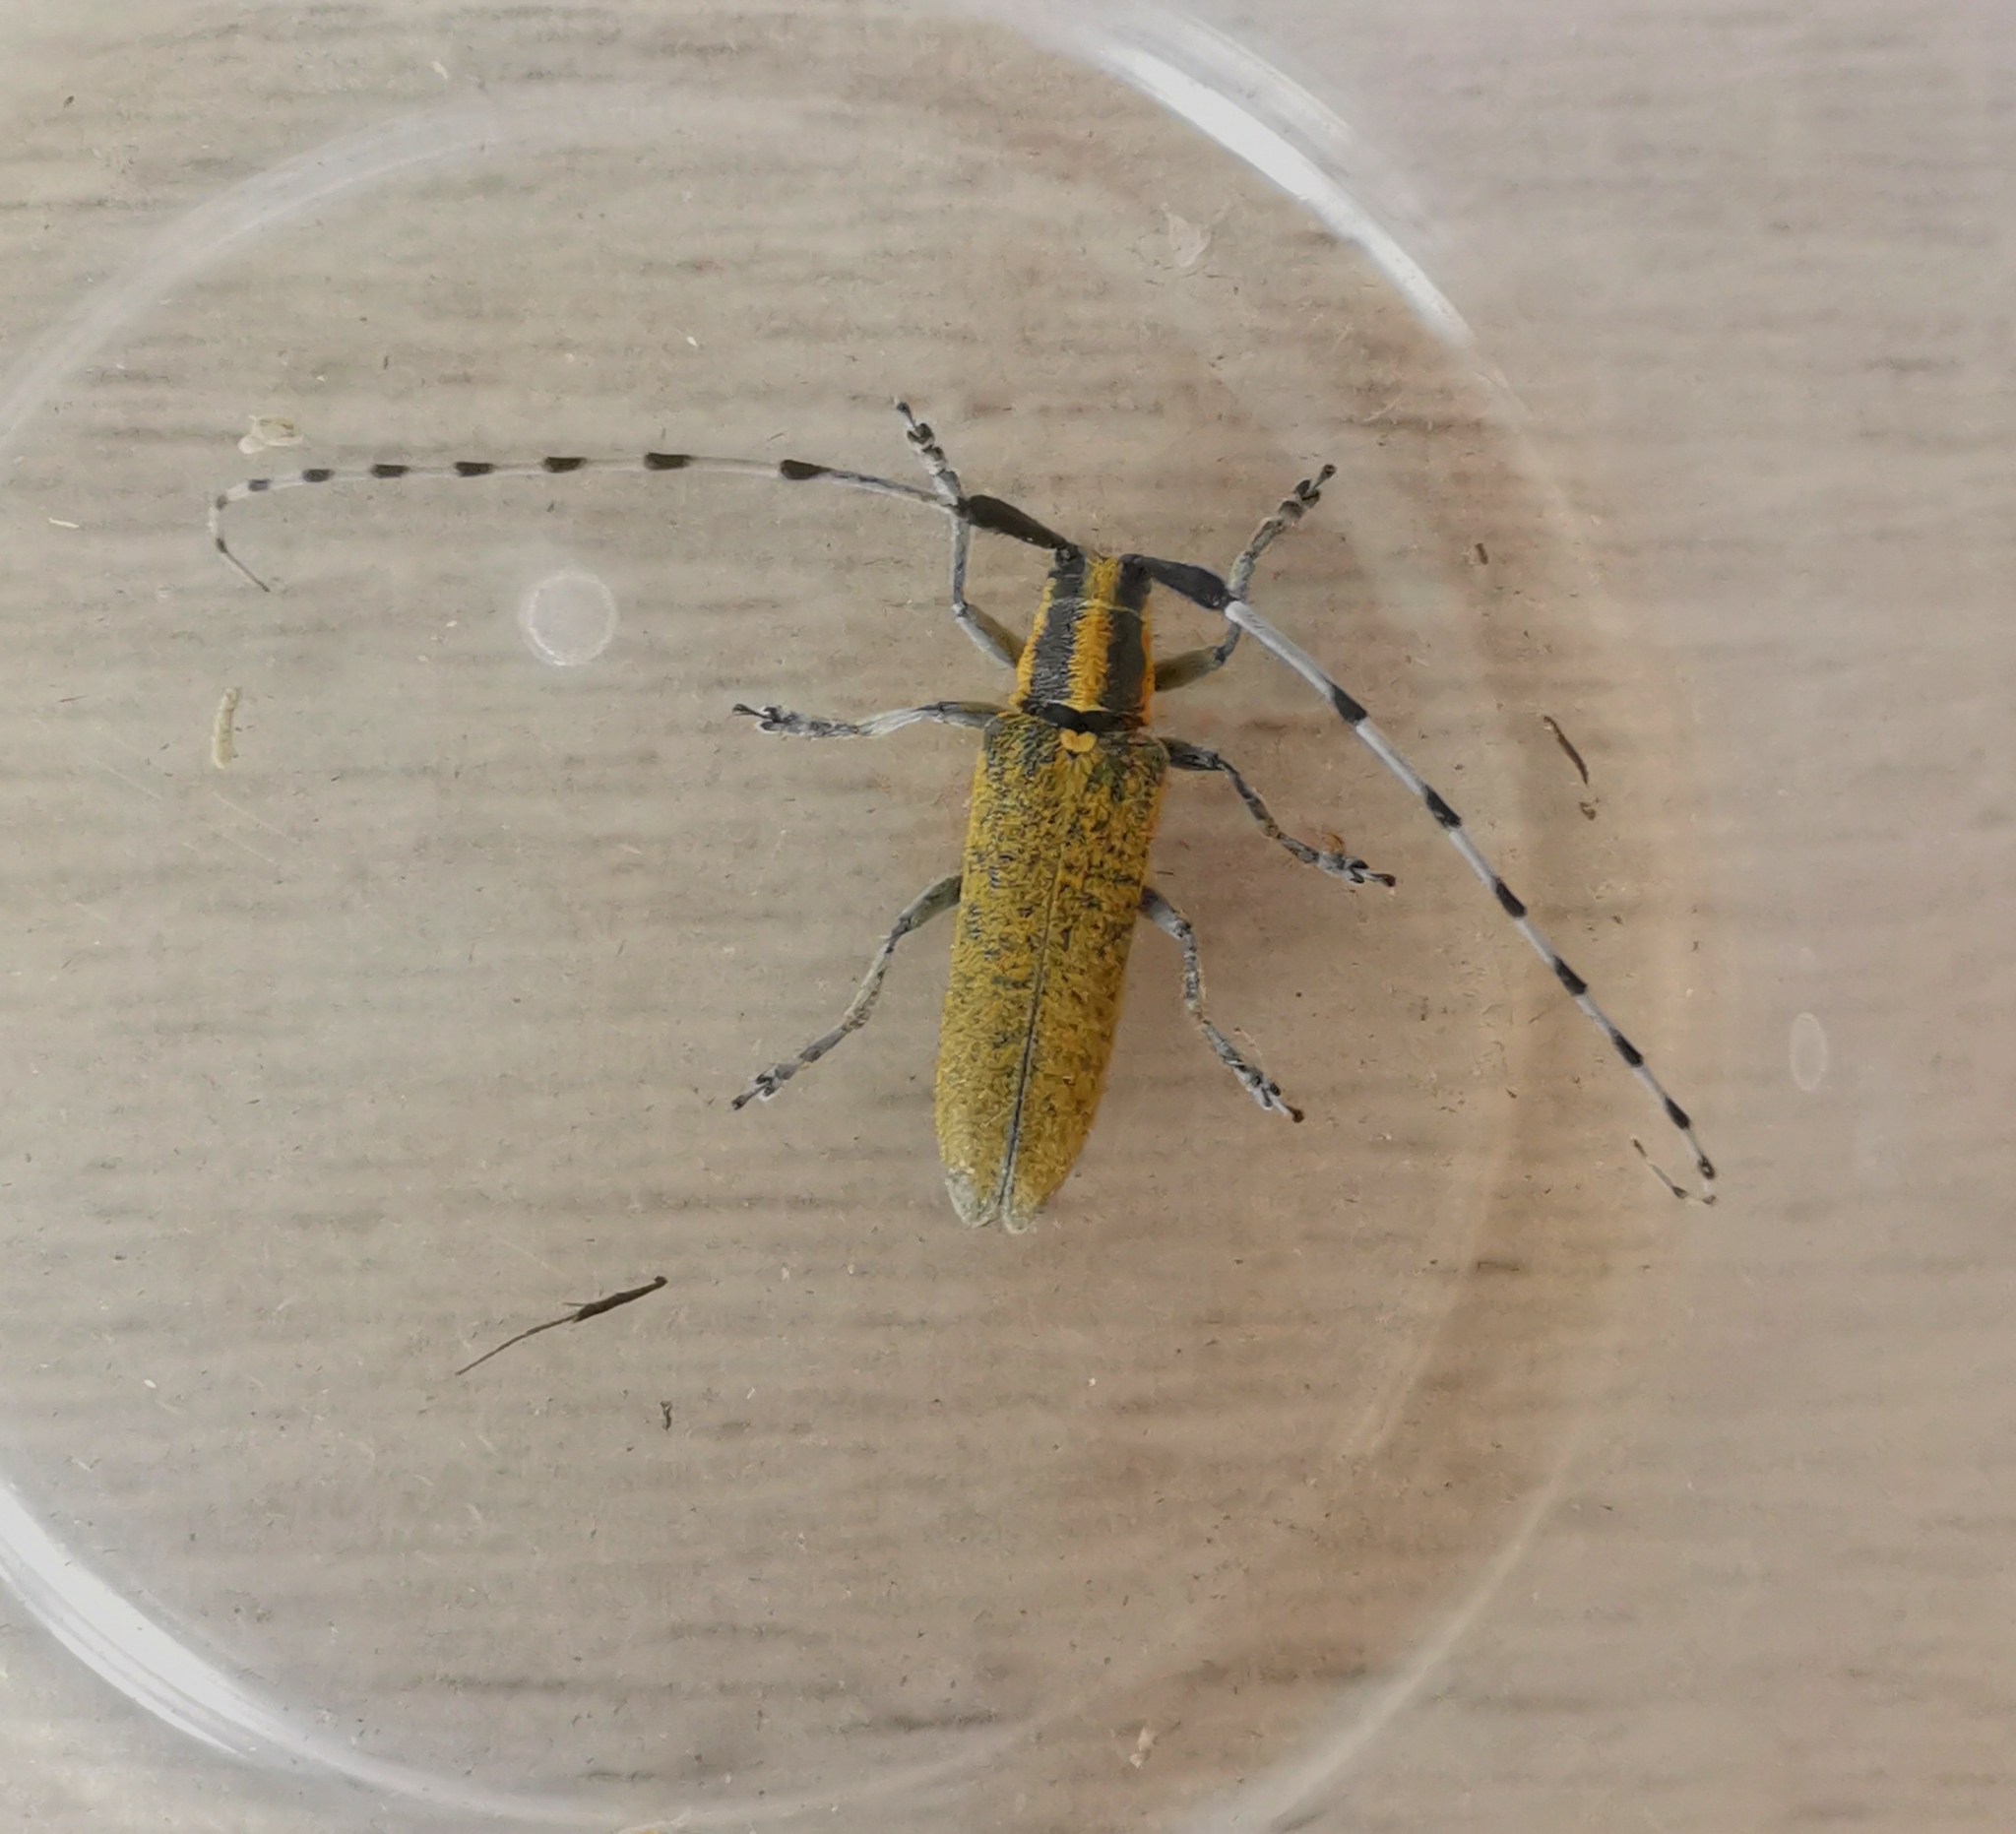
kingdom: Animalia
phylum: Arthropoda
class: Insecta
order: Coleoptera
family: Cerambycidae
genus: Agapanthia
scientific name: Agapanthia villosoviridescens
